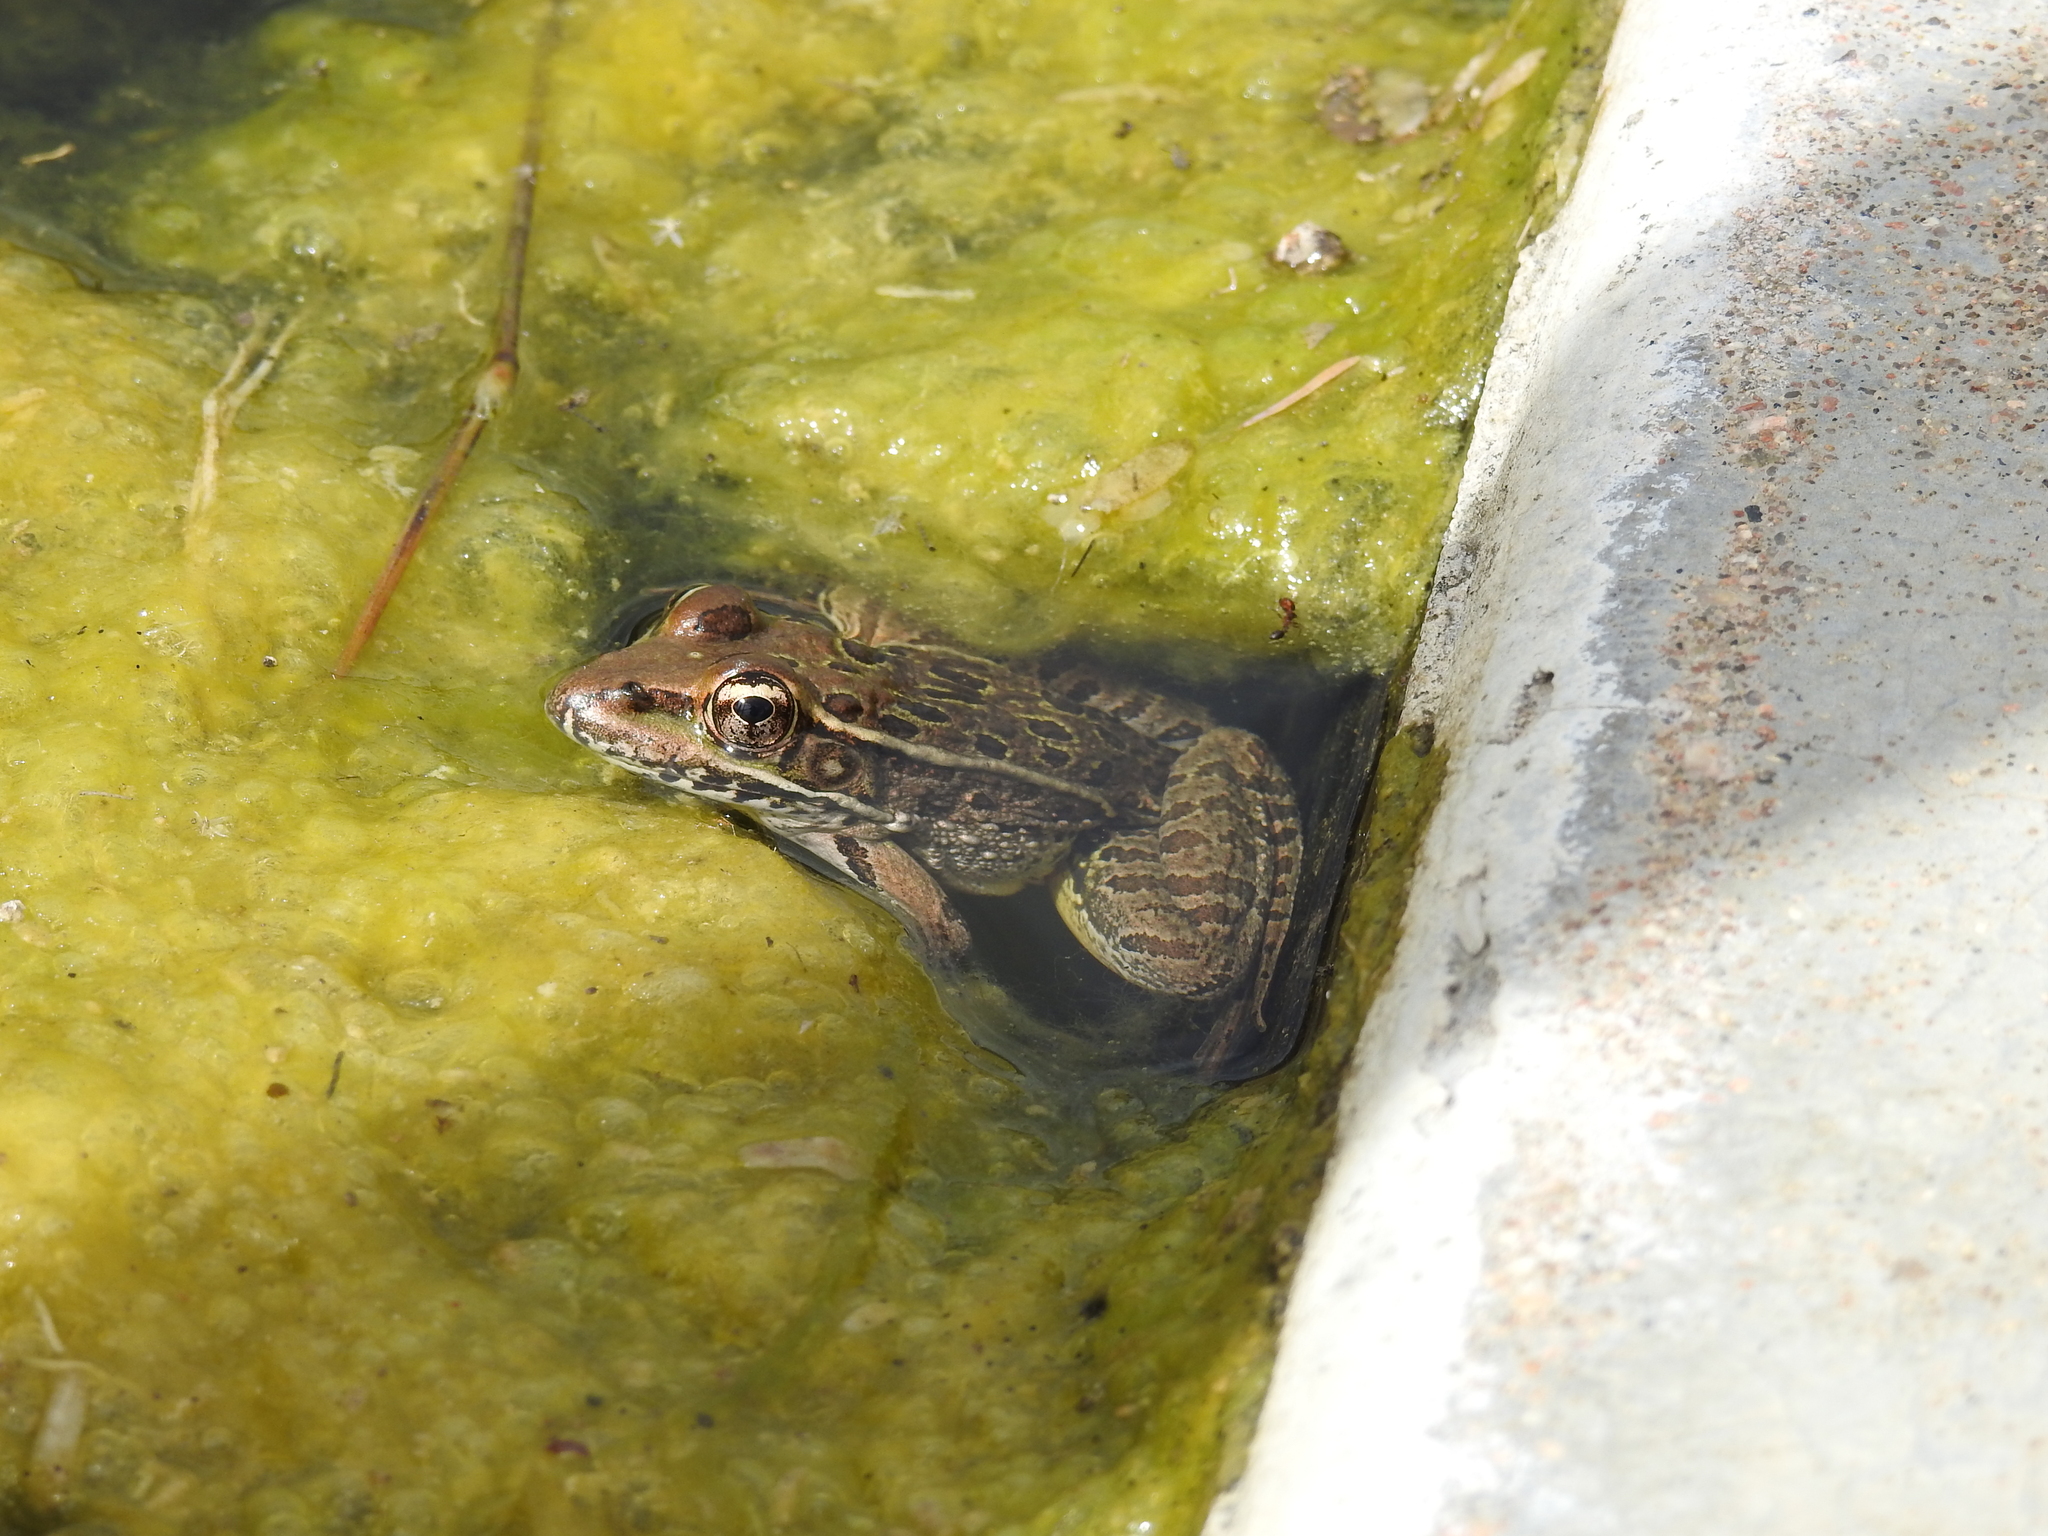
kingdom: Animalia
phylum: Chordata
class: Amphibia
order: Anura
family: Ranidae
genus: Lithobates
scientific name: Lithobates yavapaiensis
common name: Lowland leopard frog
